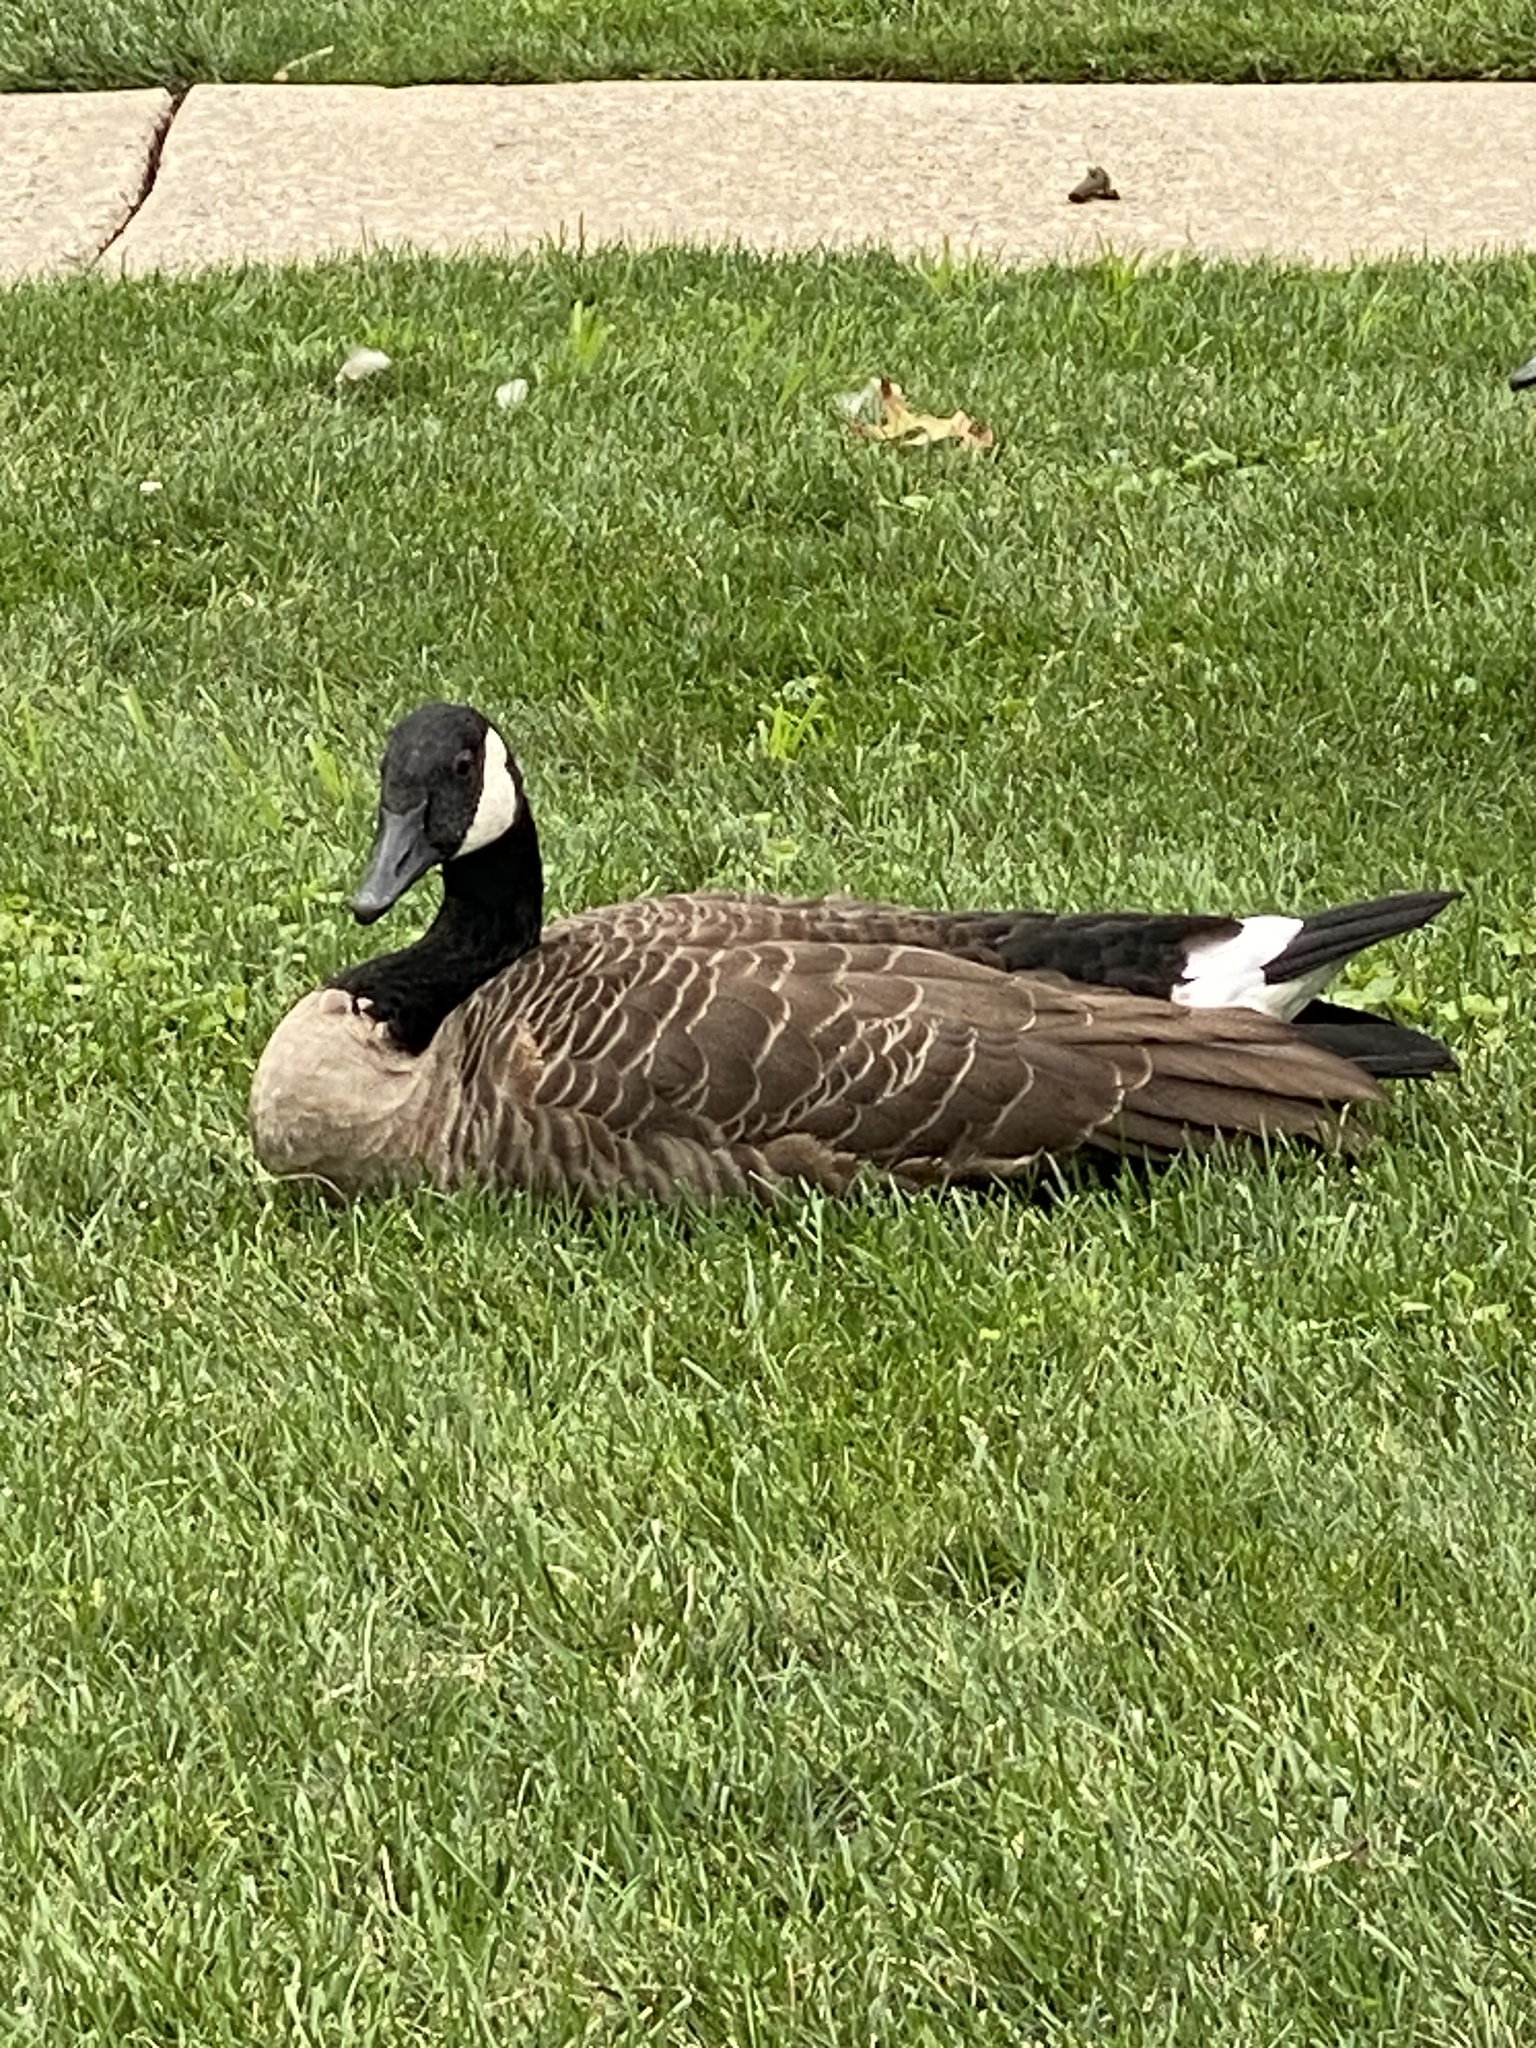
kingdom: Animalia
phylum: Chordata
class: Aves
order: Anseriformes
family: Anatidae
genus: Branta
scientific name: Branta canadensis
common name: Canada goose
